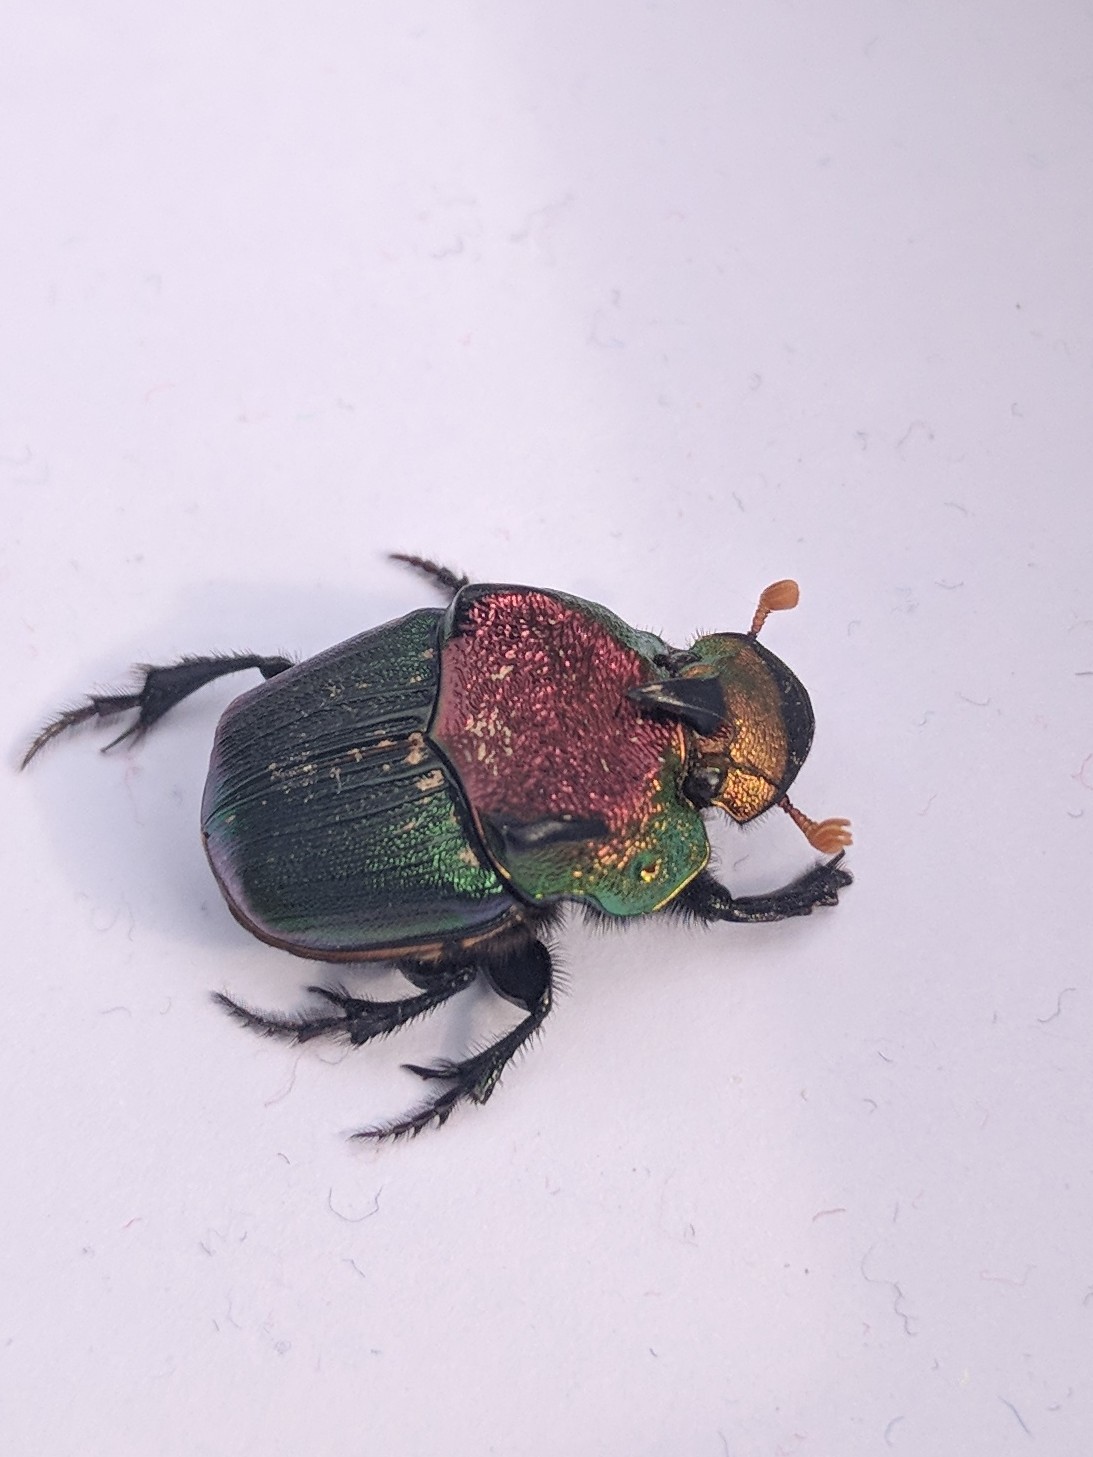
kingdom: Animalia
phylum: Arthropoda
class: Insecta
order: Coleoptera
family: Scarabaeidae
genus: Phanaeus
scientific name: Phanaeus vindex
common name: Rainbow scarab
